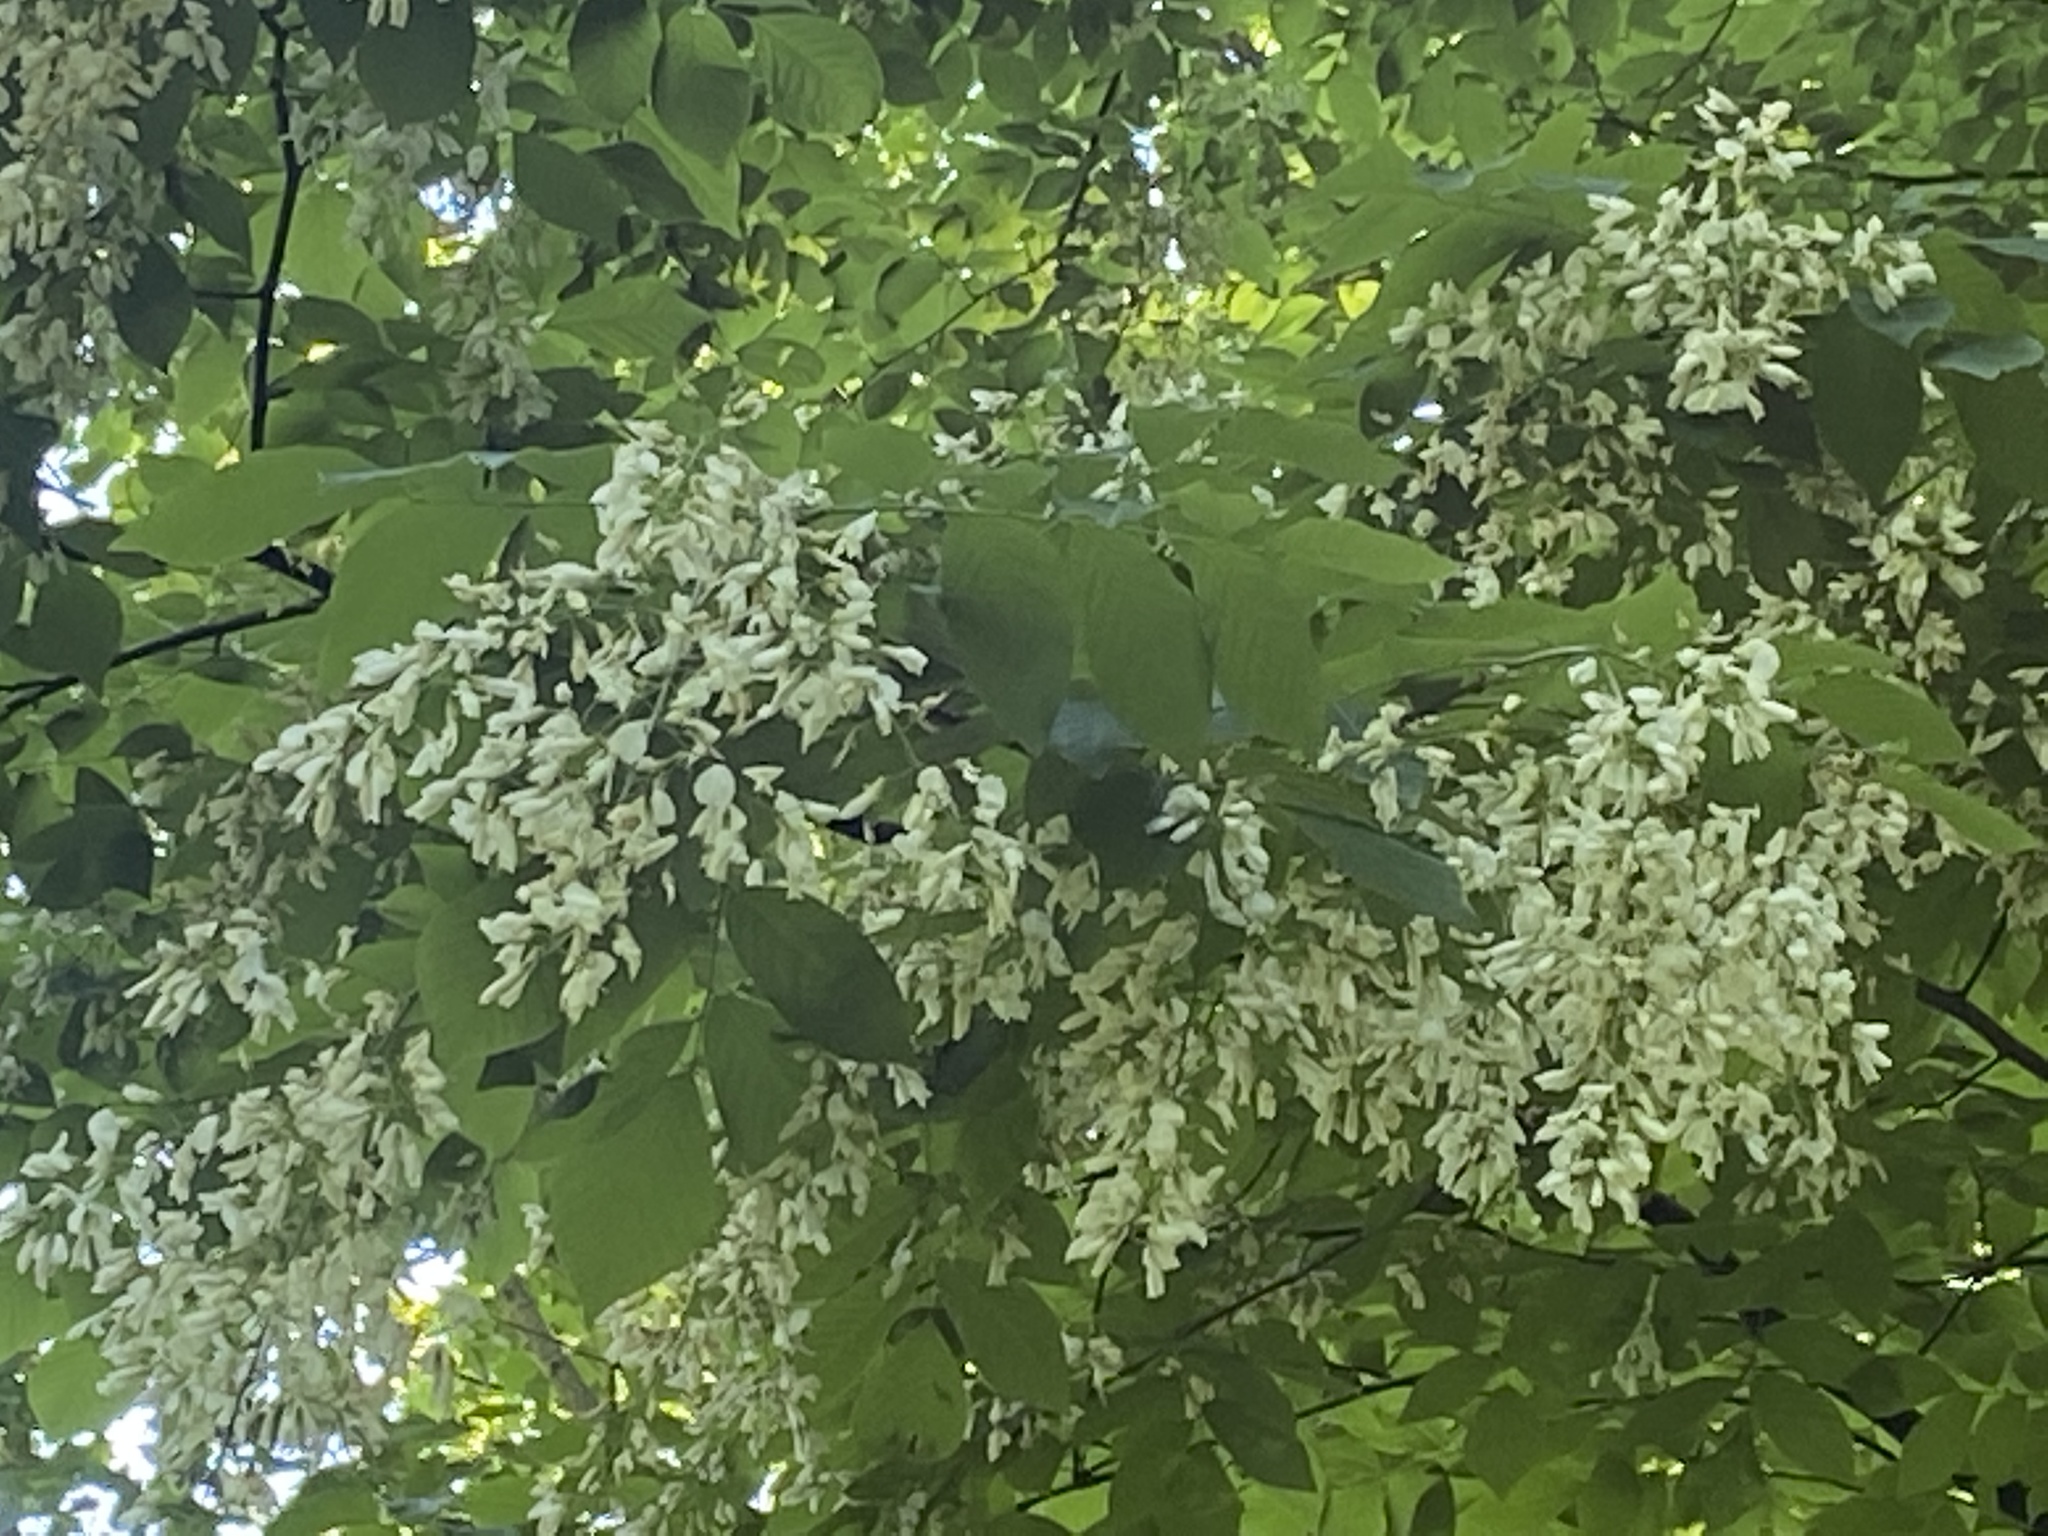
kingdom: Plantae
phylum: Tracheophyta
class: Magnoliopsida
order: Fabales
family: Fabaceae
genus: Cladrastis
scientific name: Cladrastis kentukea
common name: Kentucky yellow-wood
